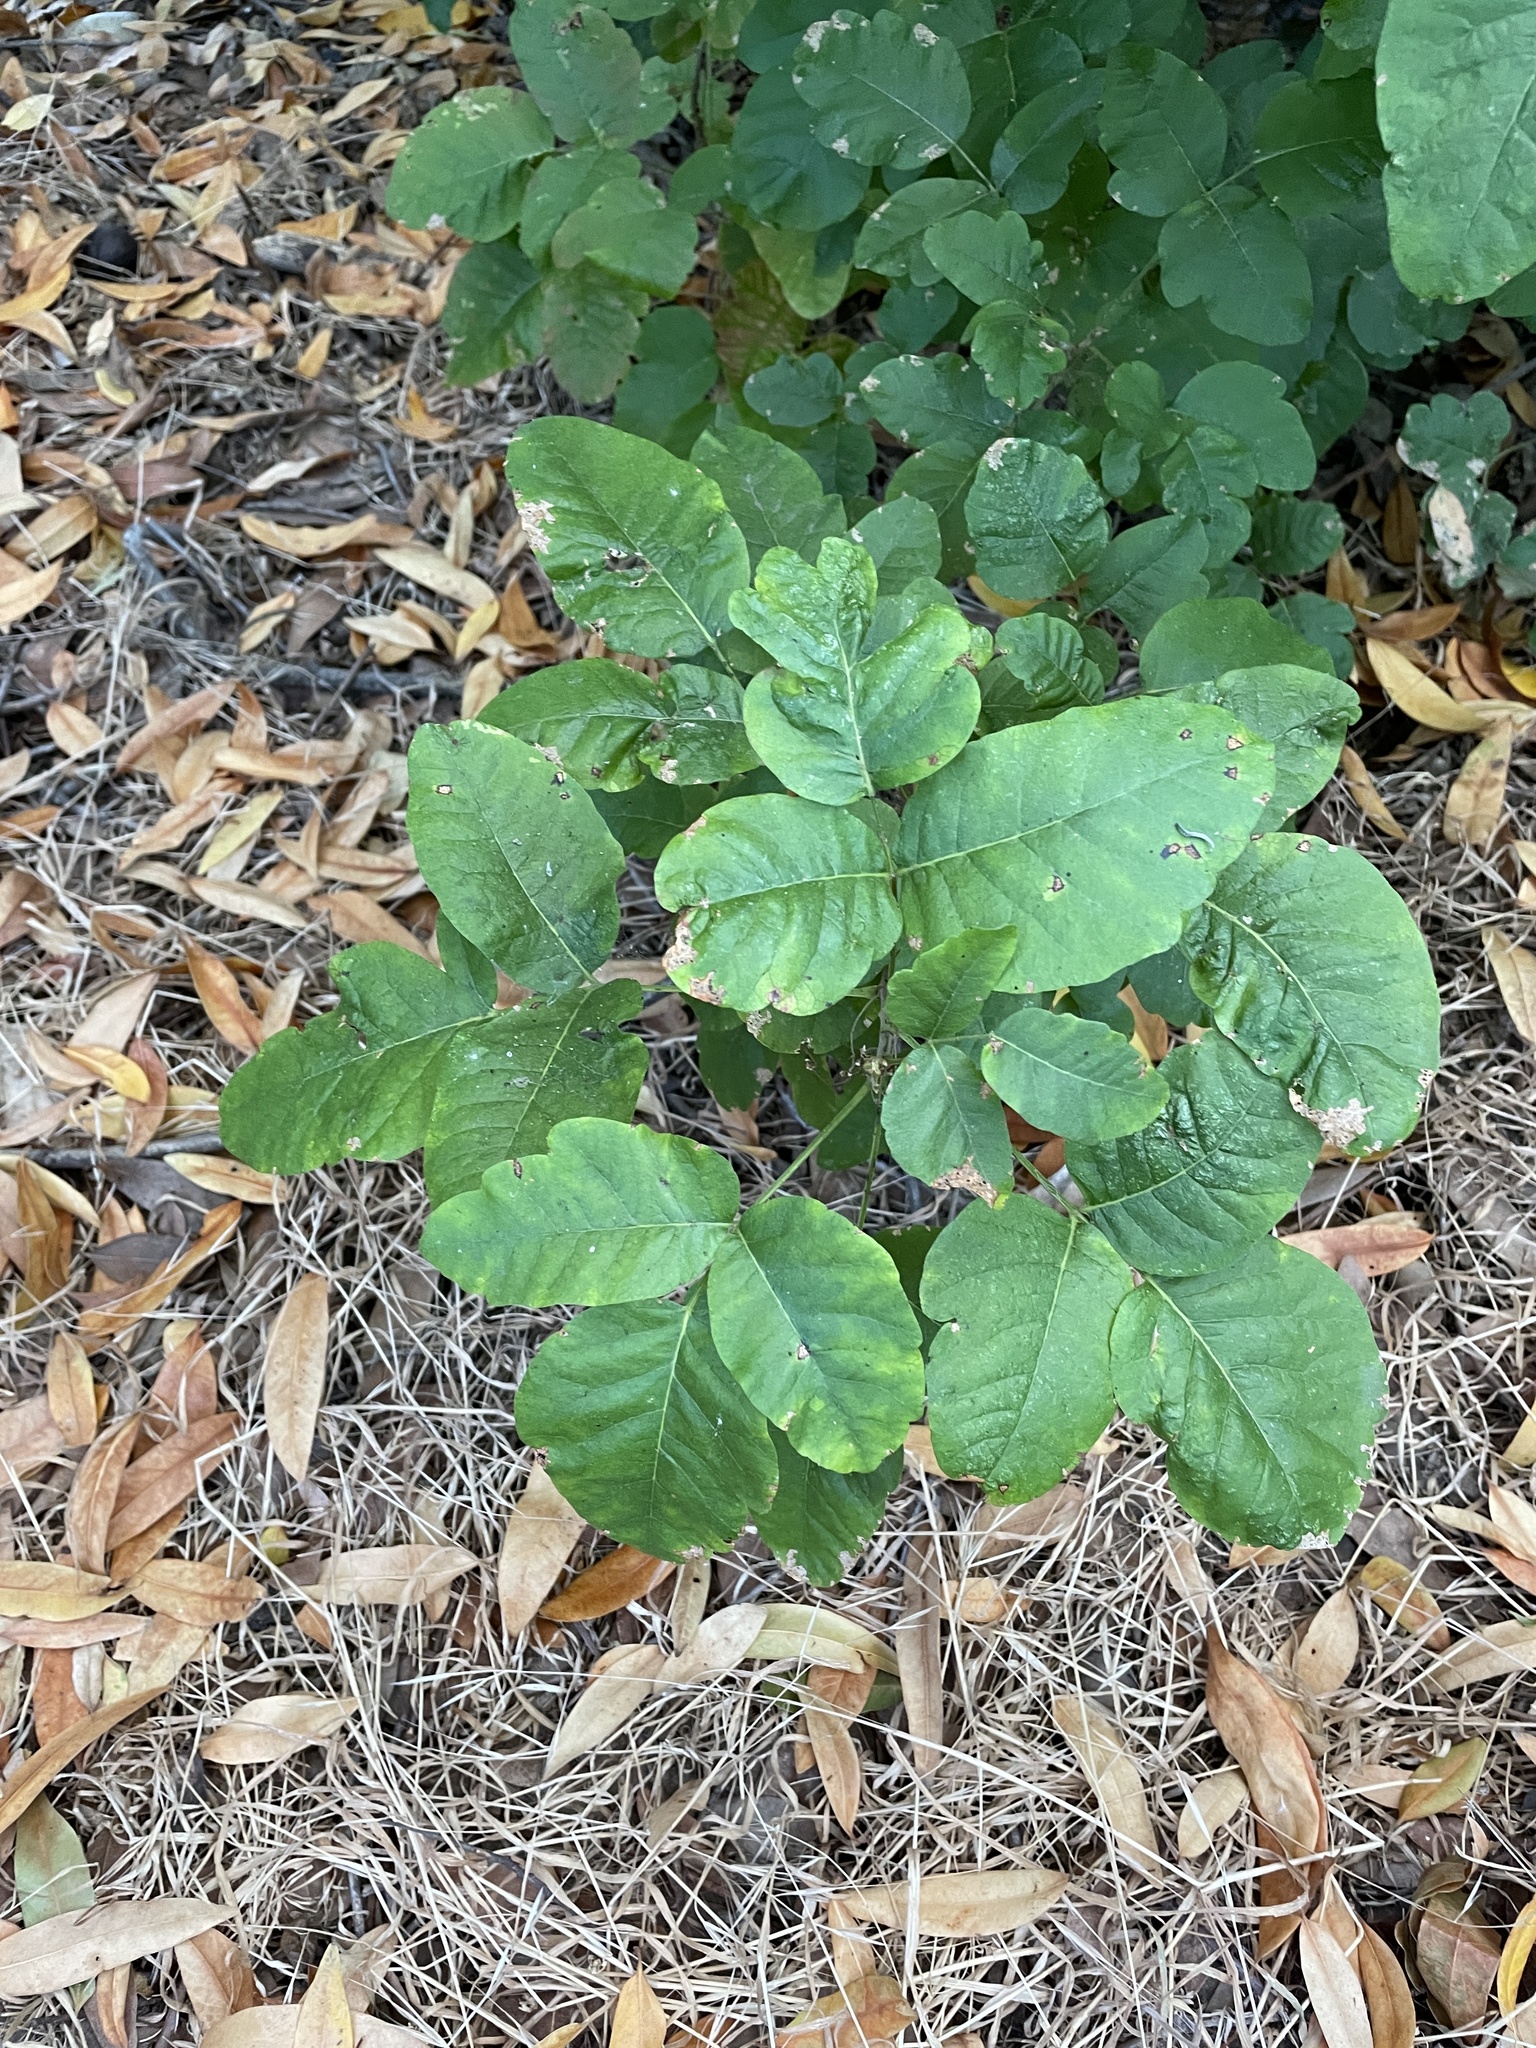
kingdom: Plantae
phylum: Tracheophyta
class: Magnoliopsida
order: Sapindales
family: Anacardiaceae
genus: Toxicodendron
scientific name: Toxicodendron diversilobum
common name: Pacific poison-oak
